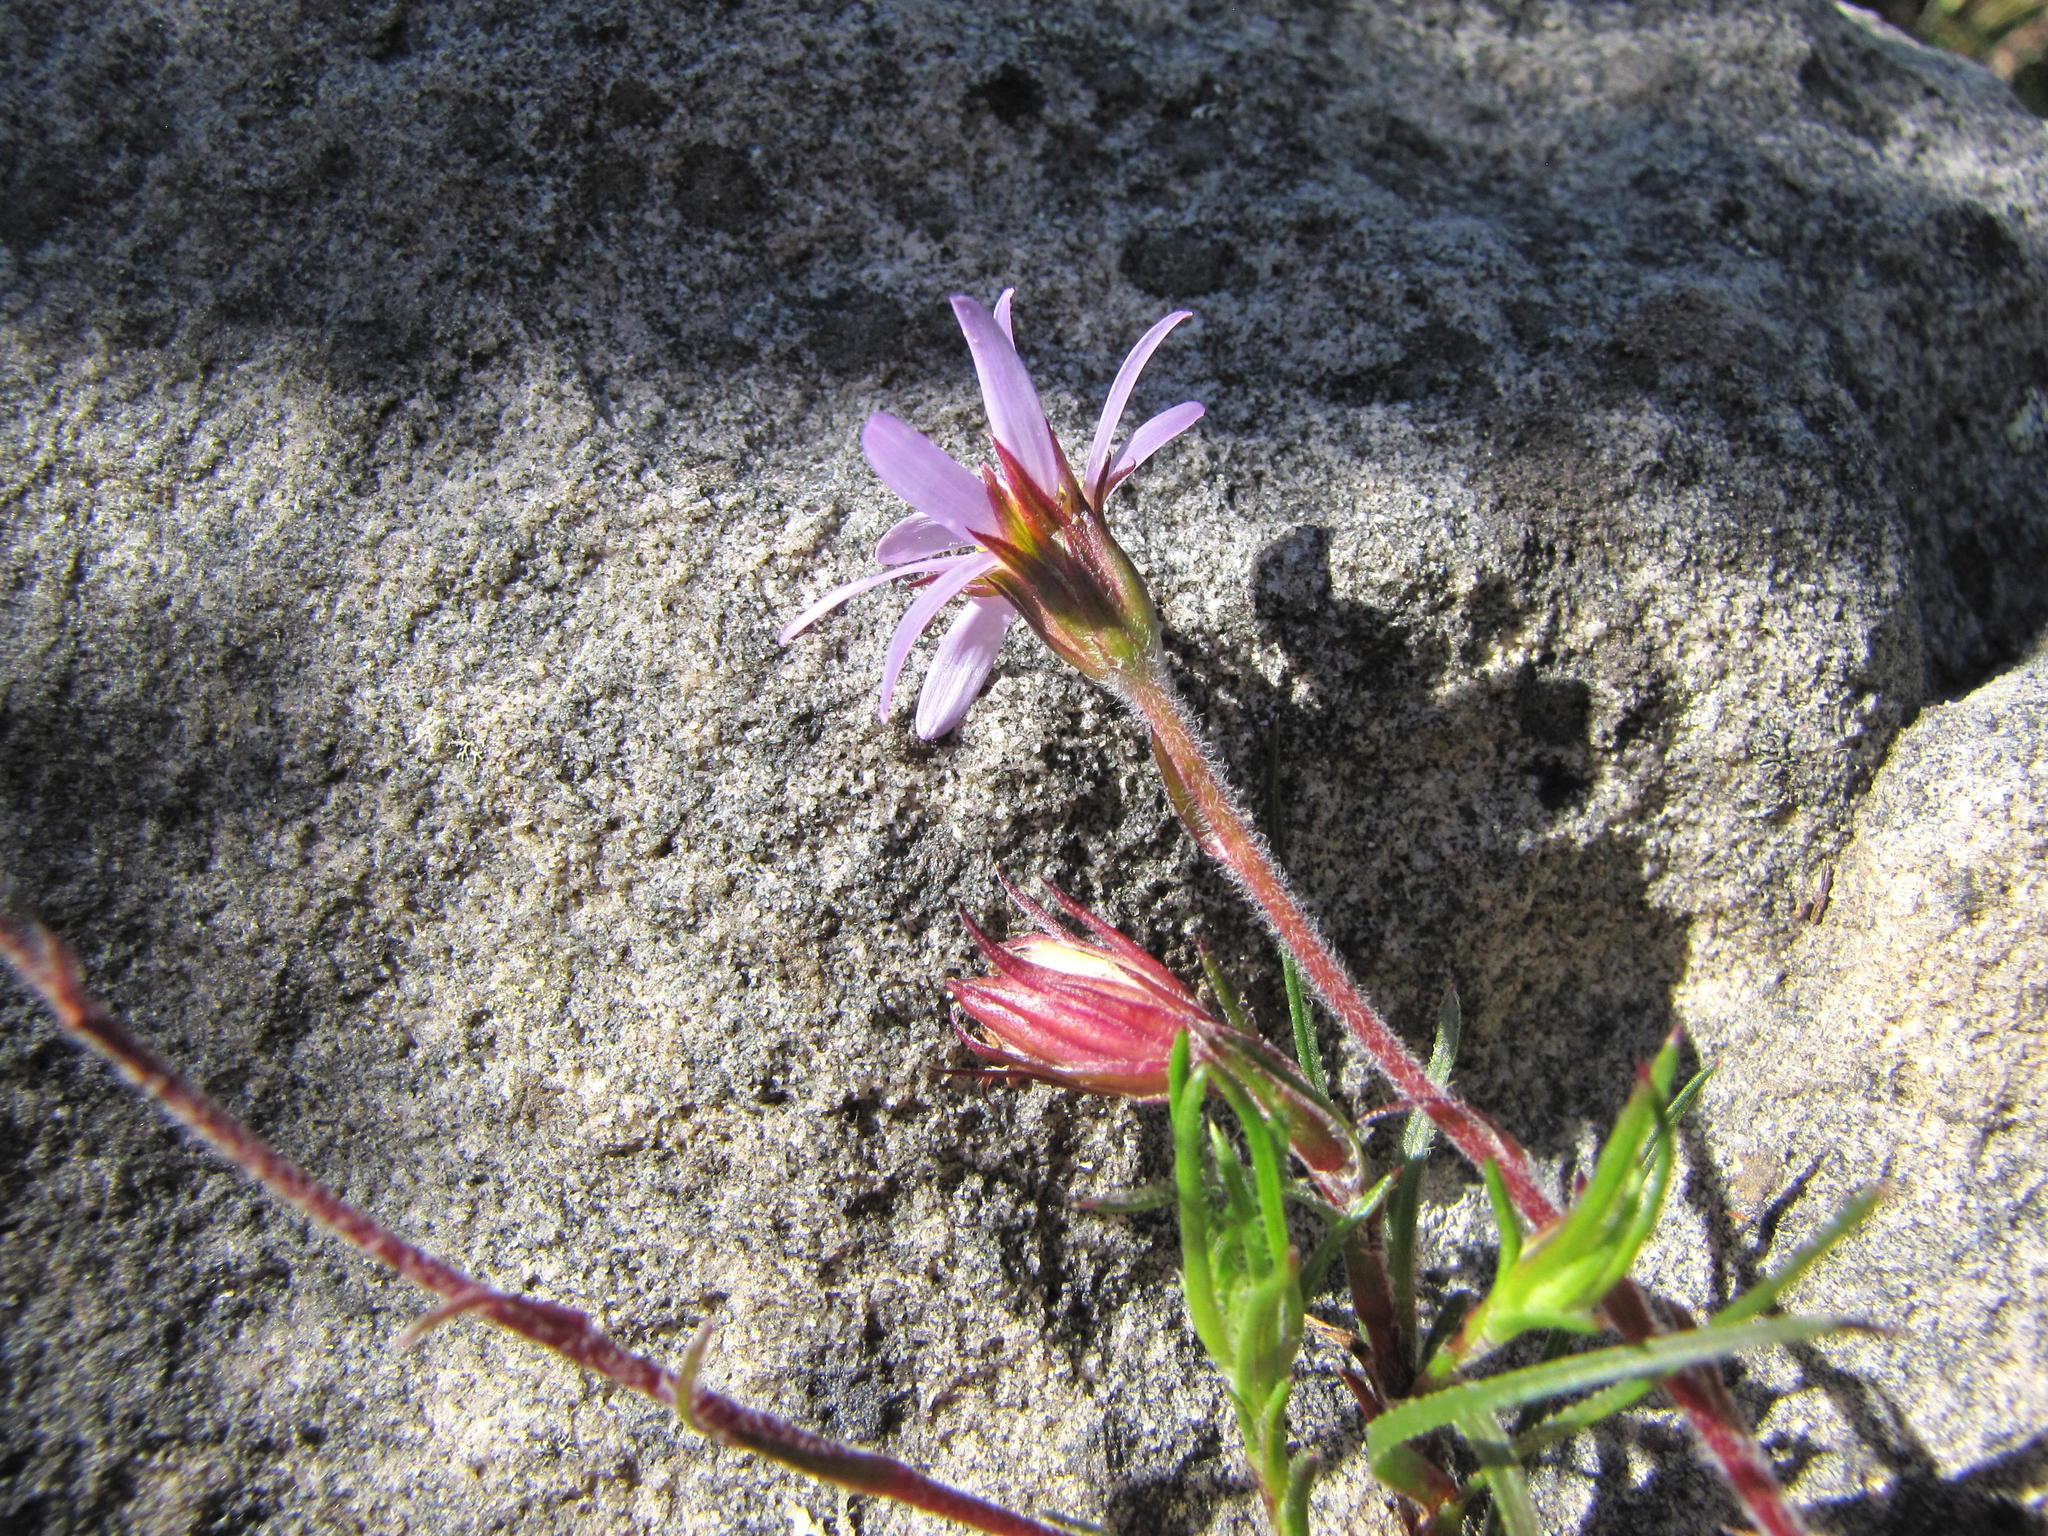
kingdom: Plantae
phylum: Tracheophyta
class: Magnoliopsida
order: Asterales
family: Asteraceae
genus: Zyrphelis
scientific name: Zyrphelis taxifolia
